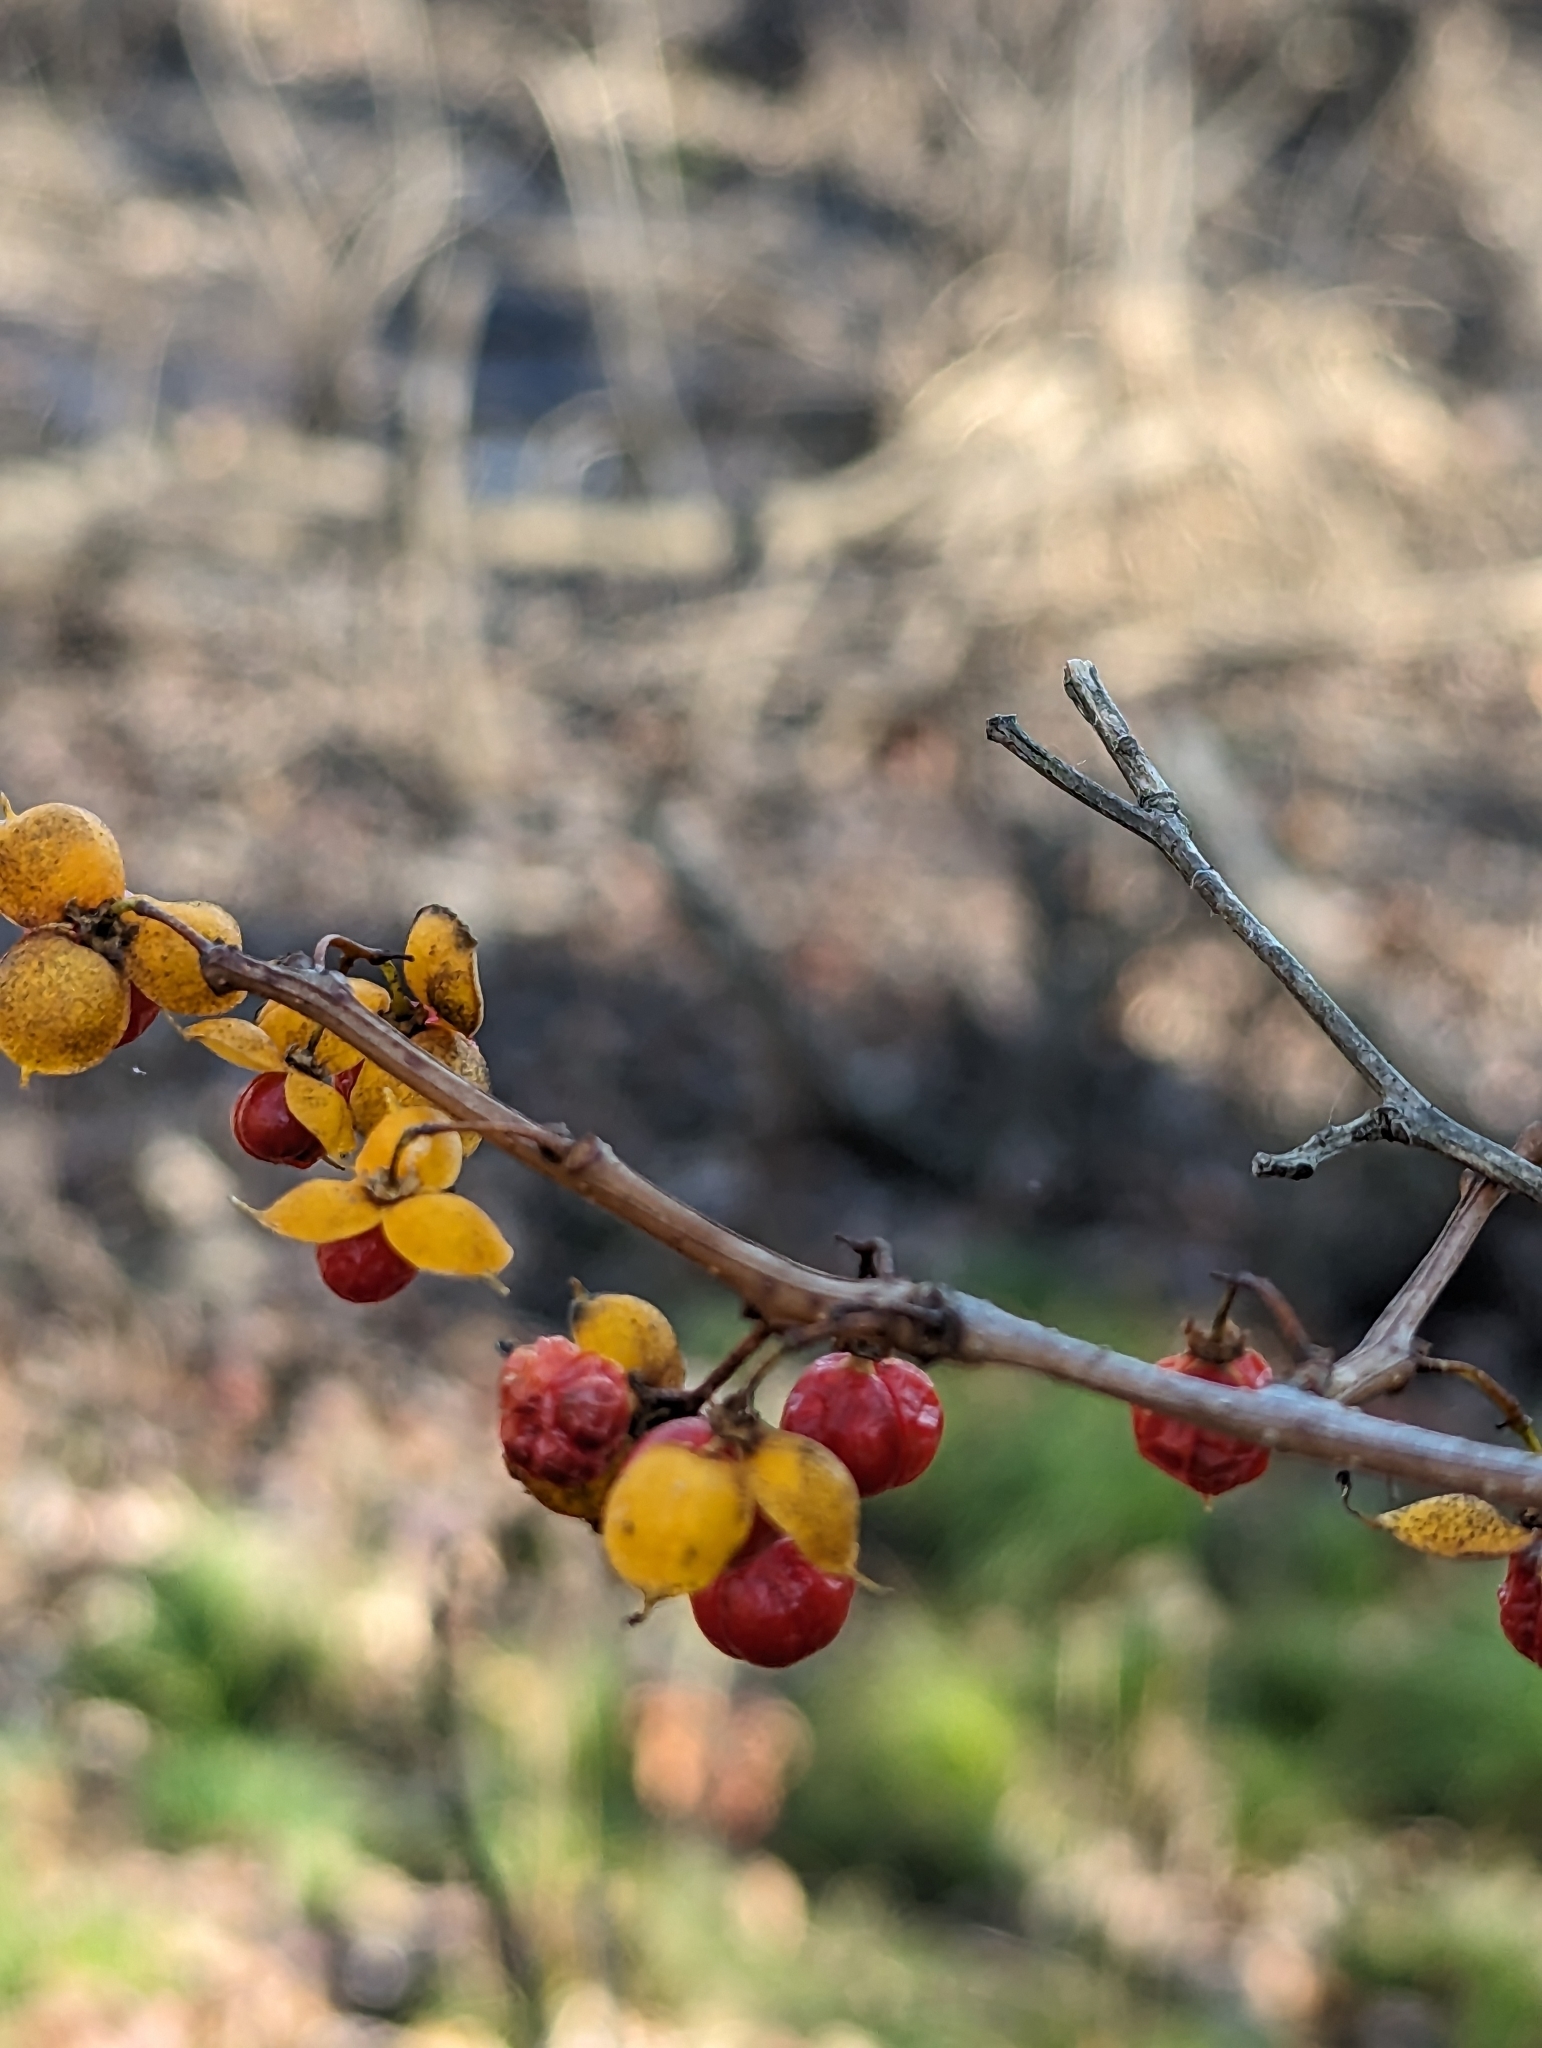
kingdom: Plantae
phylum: Tracheophyta
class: Magnoliopsida
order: Celastrales
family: Celastraceae
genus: Celastrus
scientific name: Celastrus orbiculatus
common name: Oriental bittersweet
